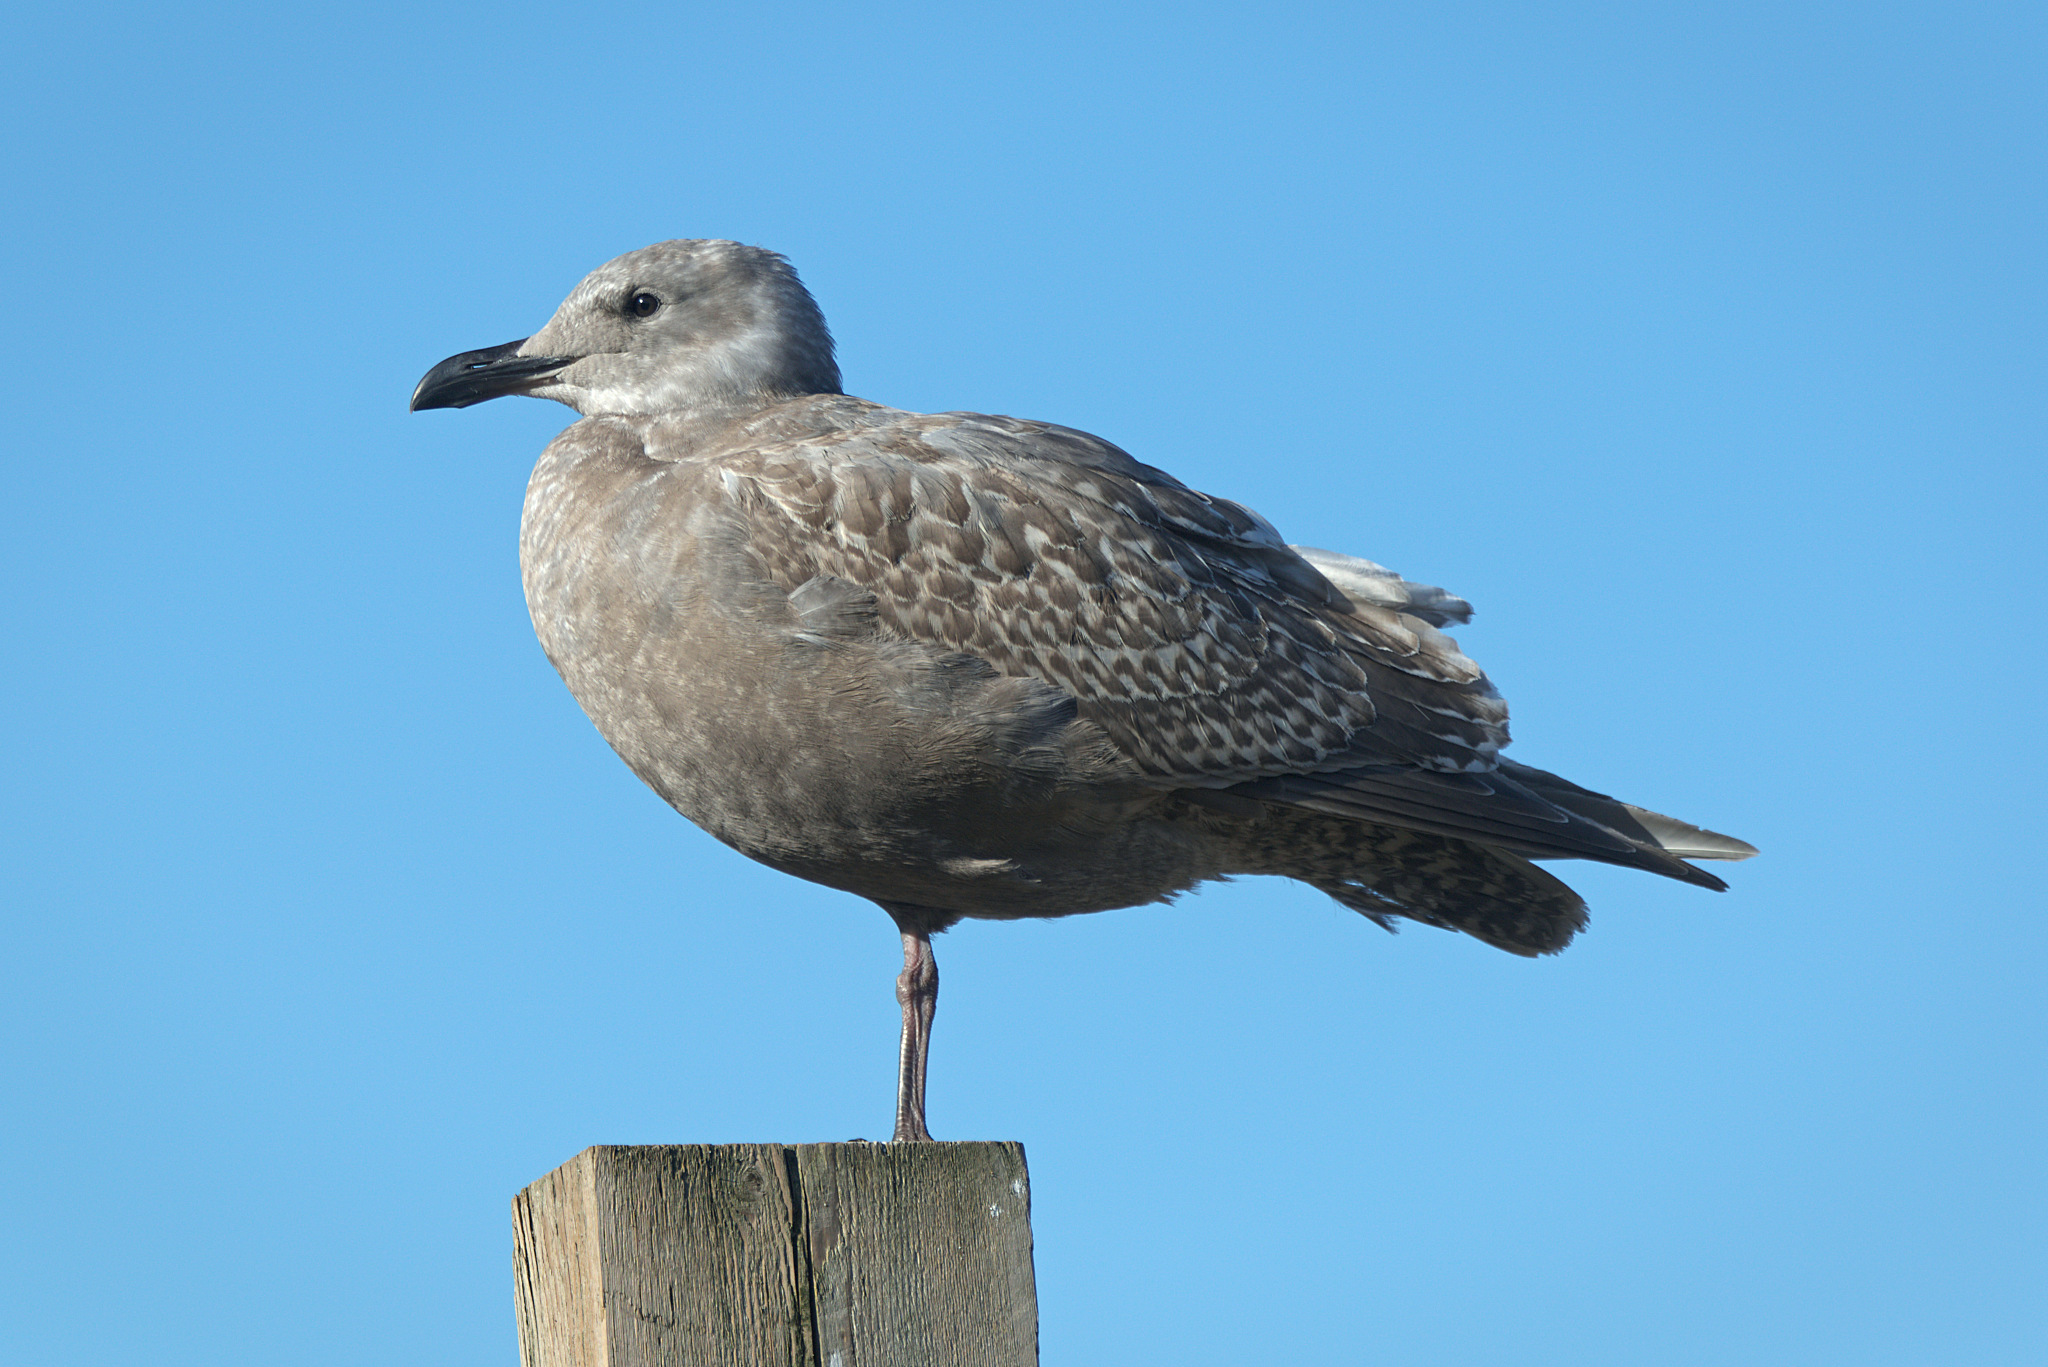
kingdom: Animalia
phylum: Chordata
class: Aves
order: Charadriiformes
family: Laridae
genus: Larus
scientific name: Larus glaucescens
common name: Glaucous-winged gull
